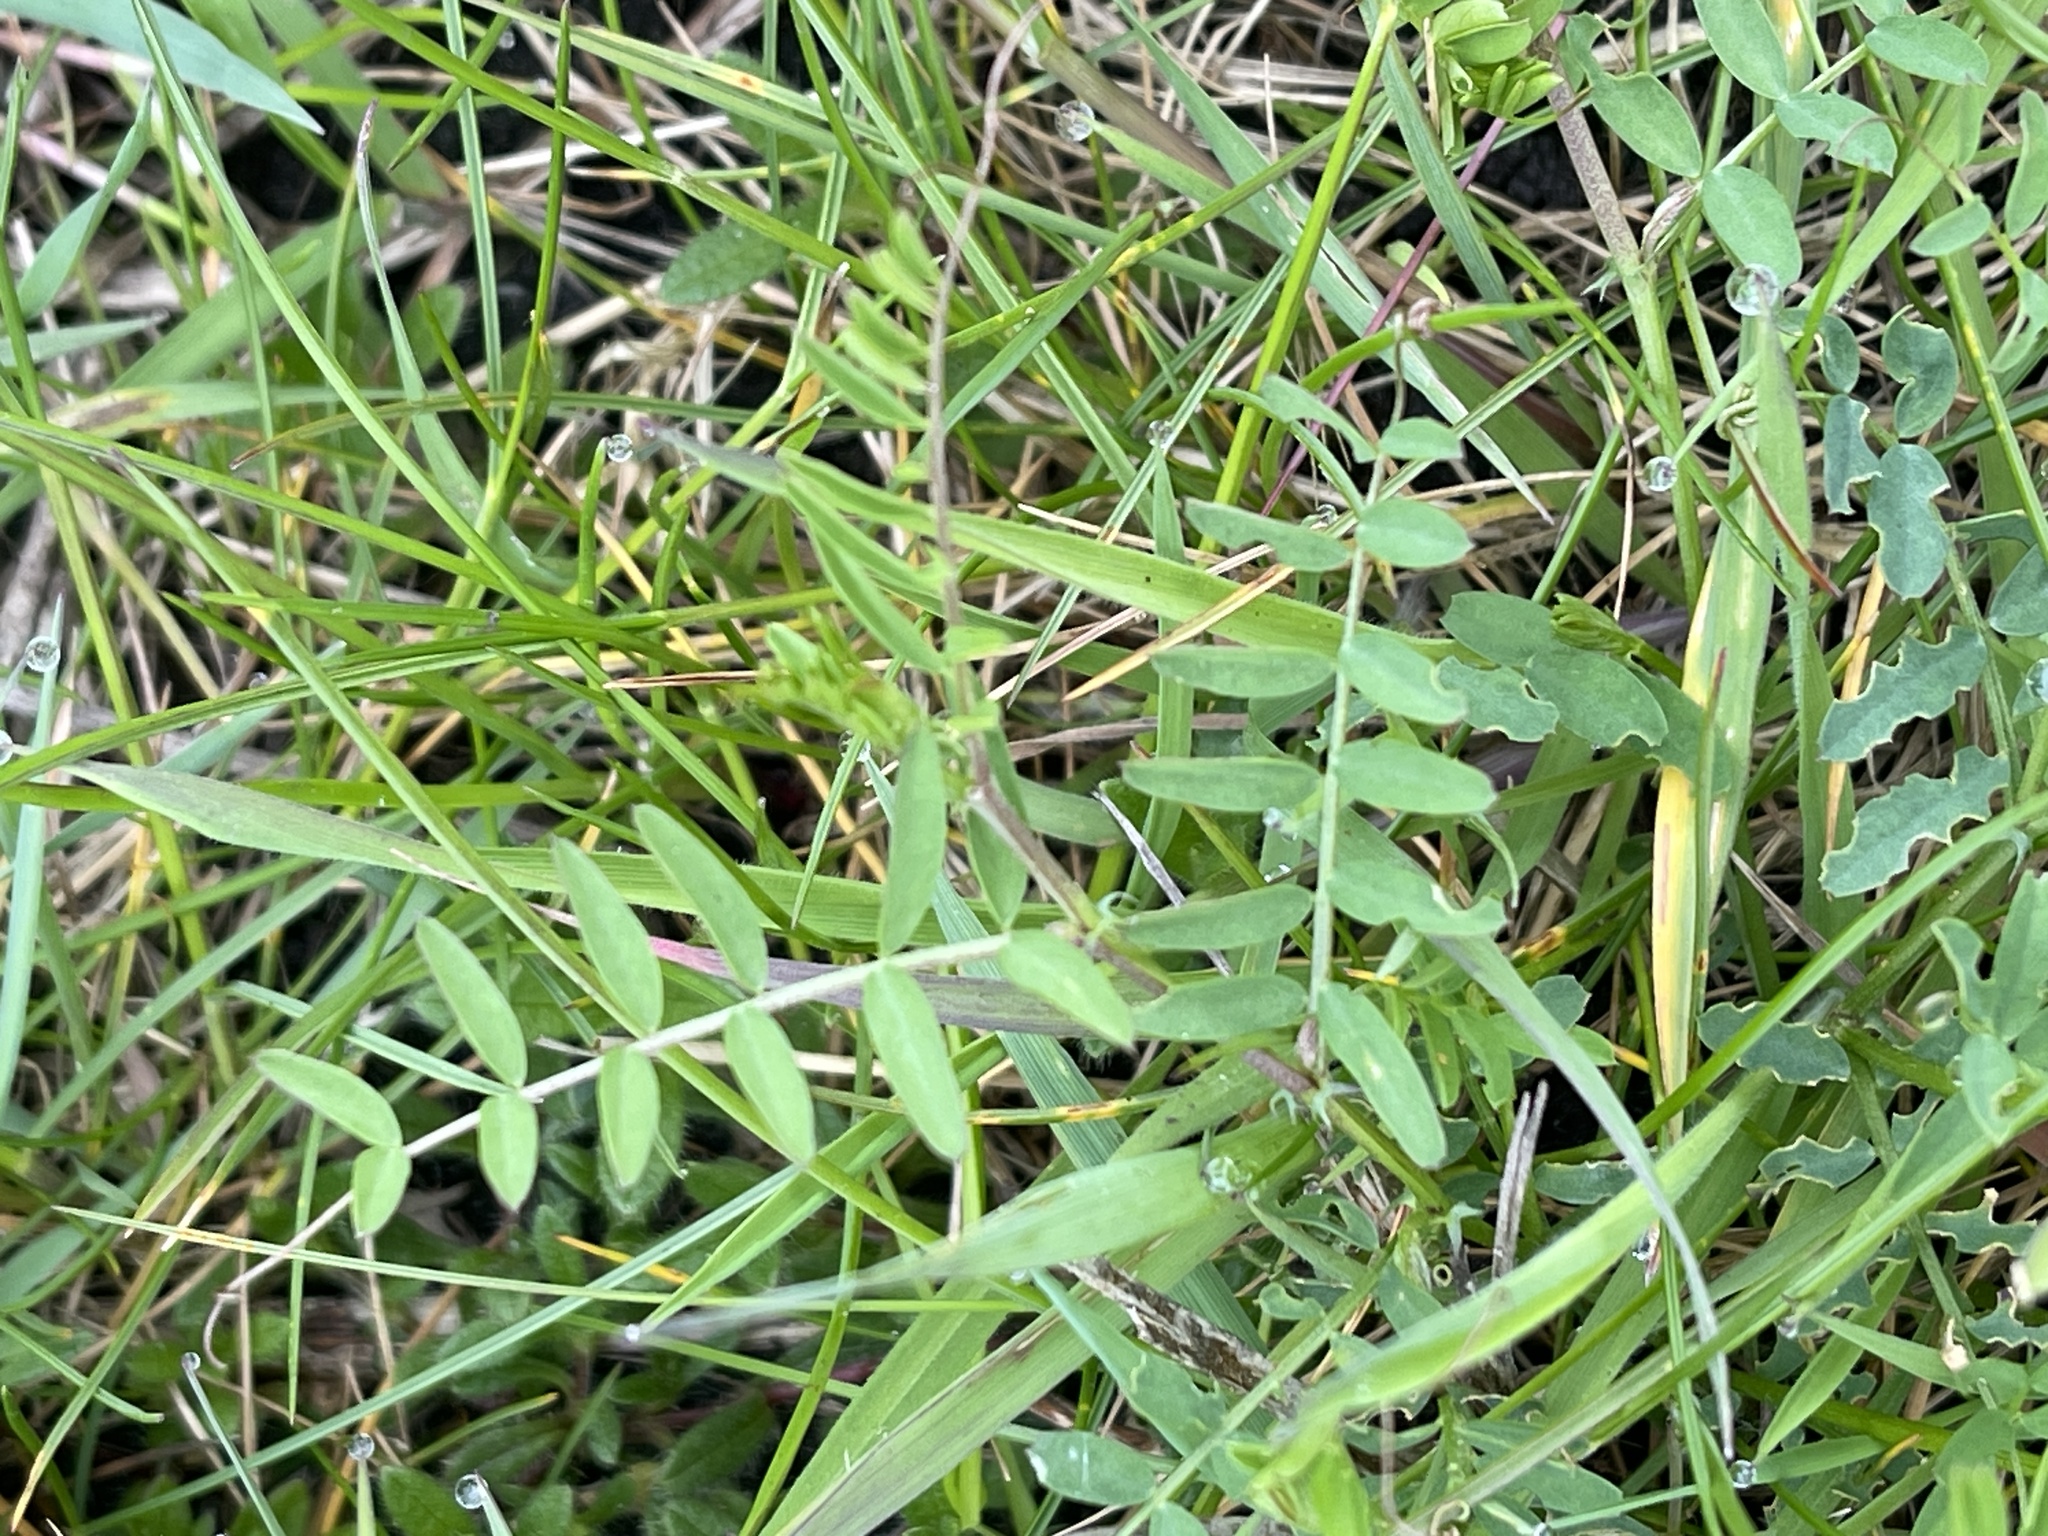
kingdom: Plantae
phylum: Tracheophyta
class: Magnoliopsida
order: Fabales
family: Fabaceae
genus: Vicia
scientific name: Vicia cracca
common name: Bird vetch
